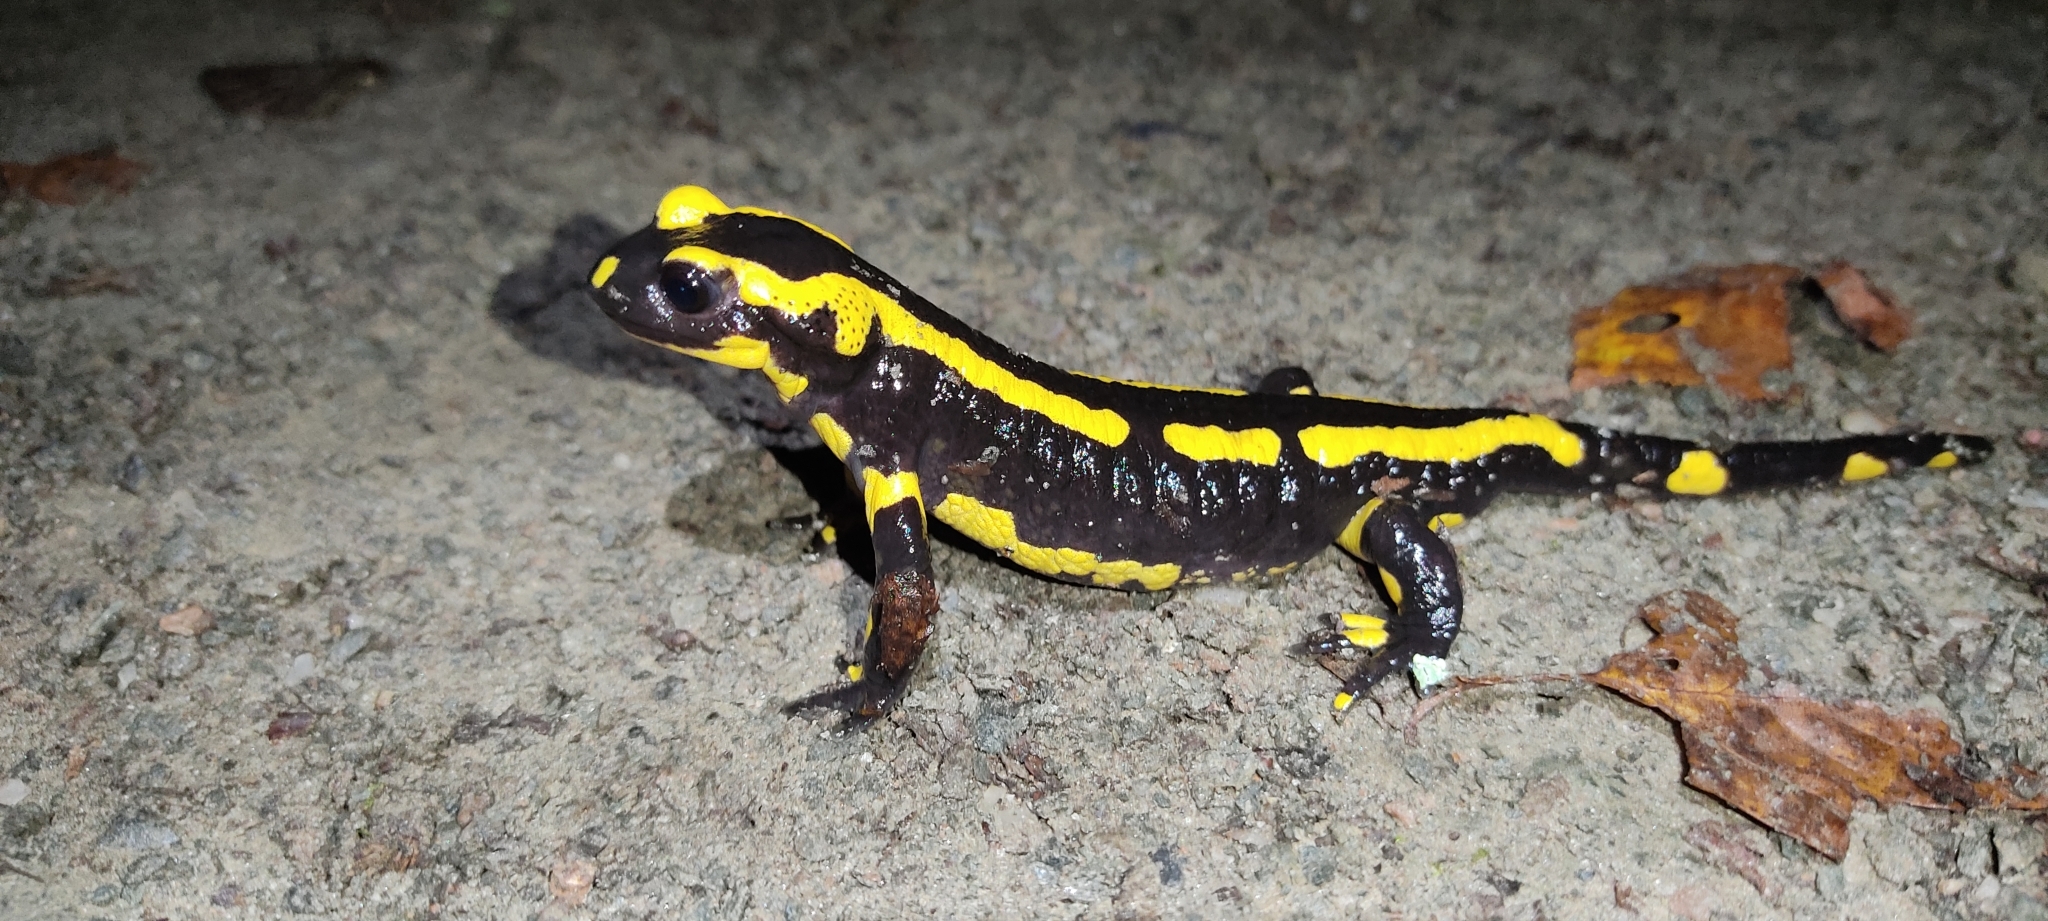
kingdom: Animalia
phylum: Chordata
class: Amphibia
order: Caudata
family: Salamandridae
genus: Salamandra
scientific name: Salamandra salamandra
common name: Fire salamander
